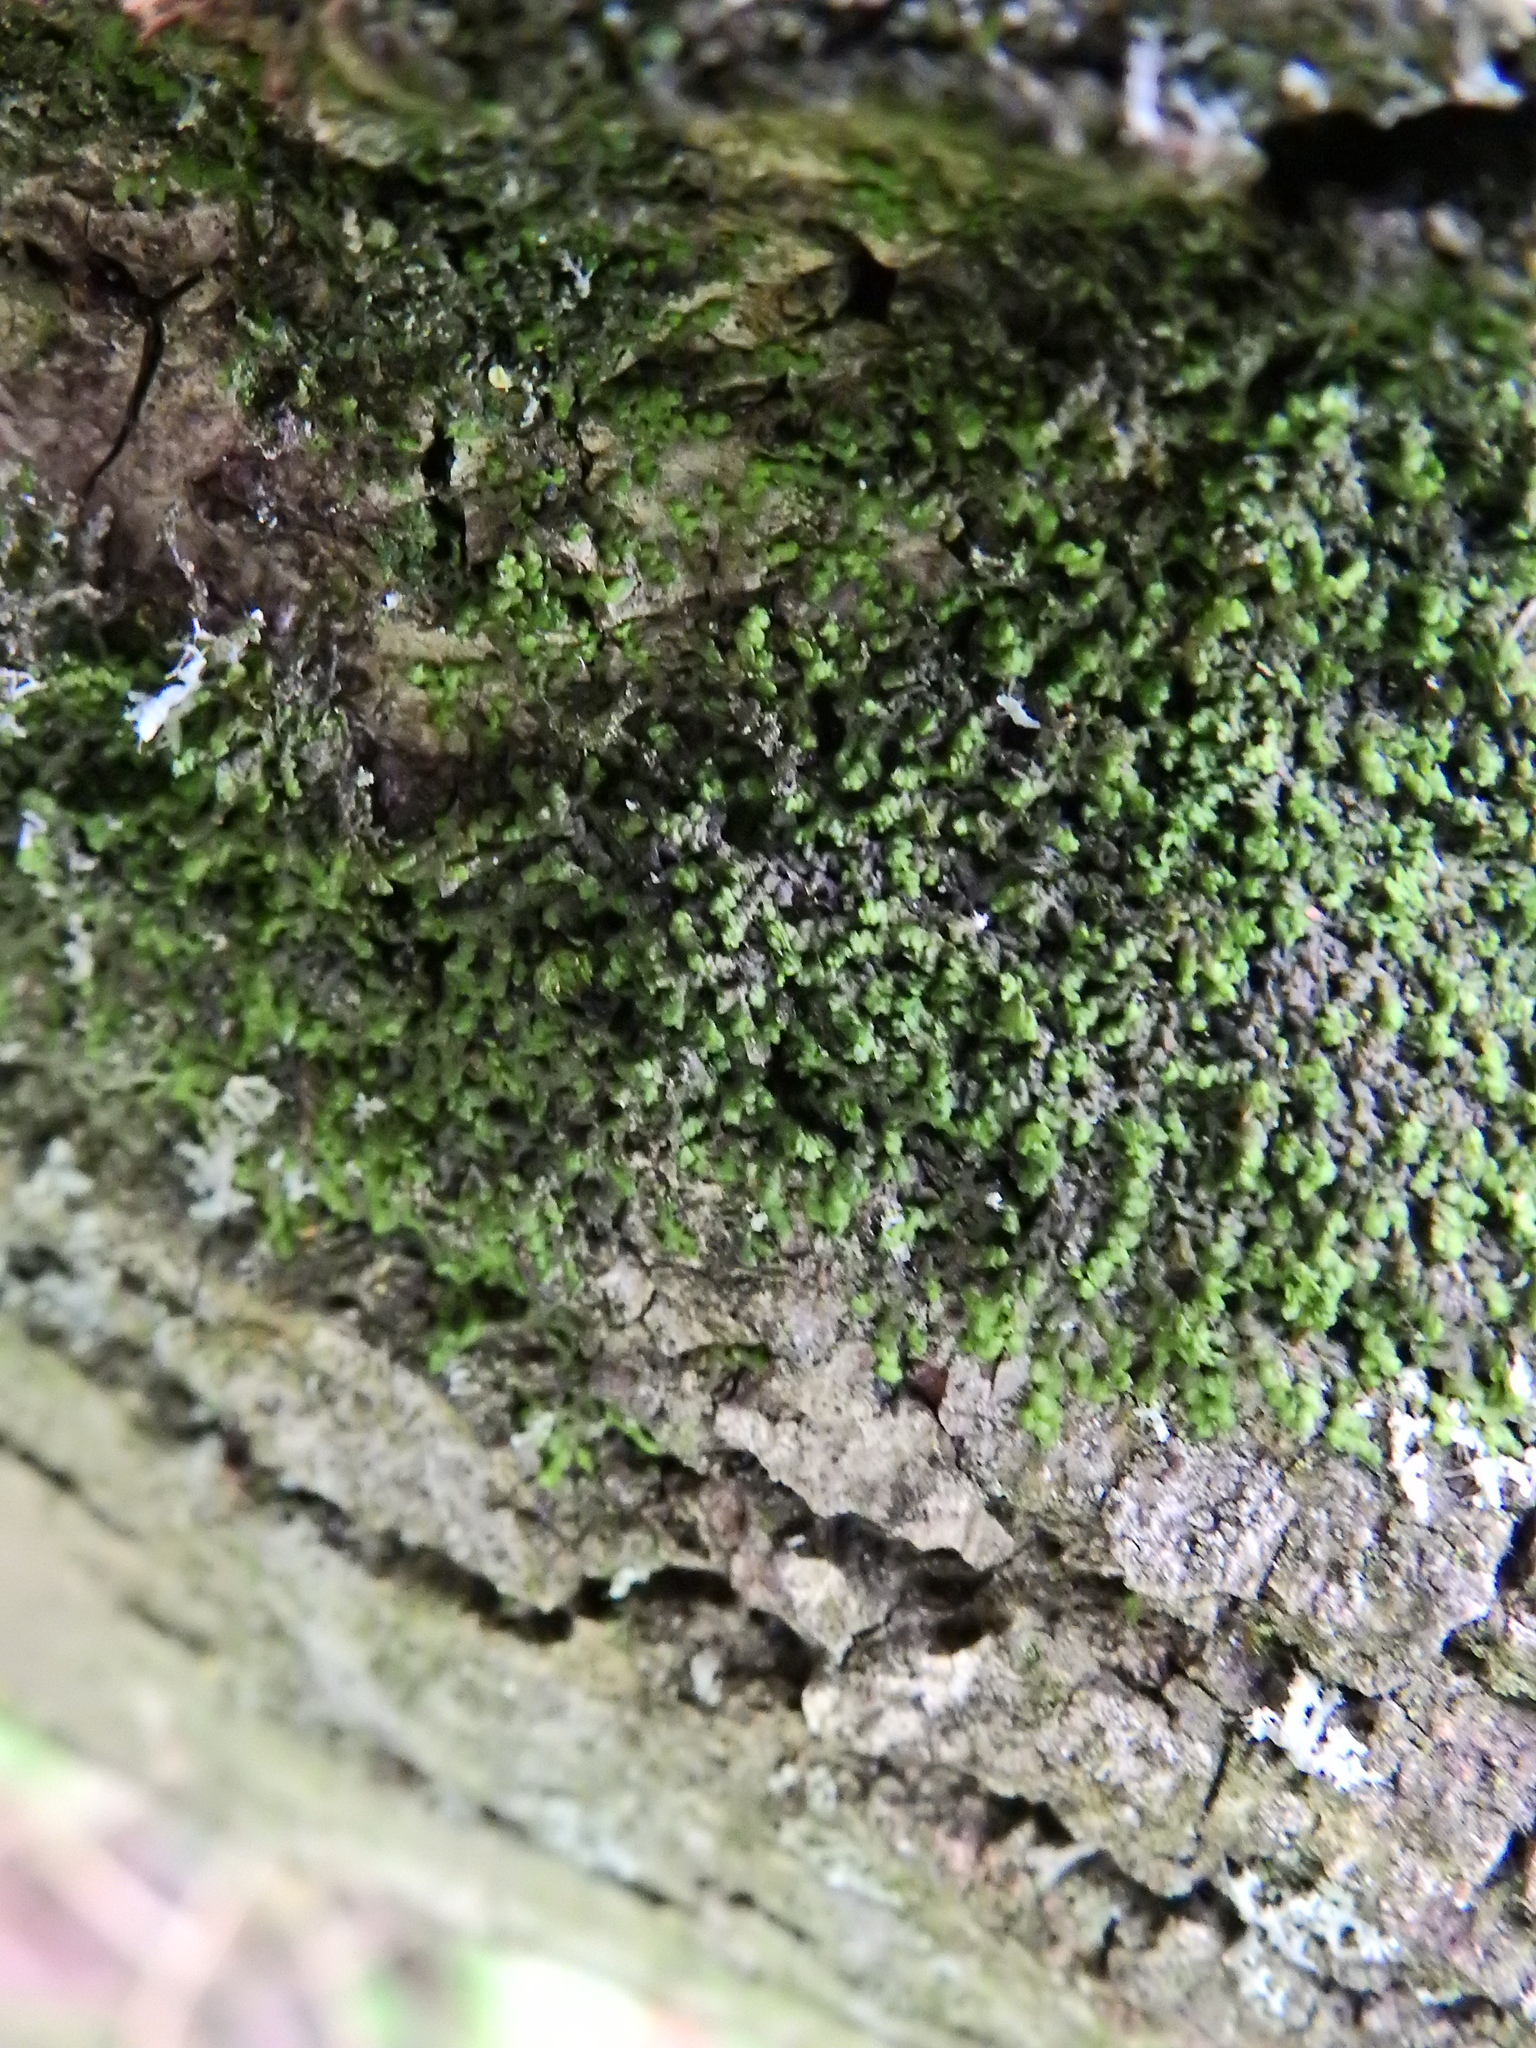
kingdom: Plantae
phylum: Marchantiophyta
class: Jungermanniopsida
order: Porellales
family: Frullaniaceae
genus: Frullania
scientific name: Frullania dilatata
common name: Dilated scalewort
